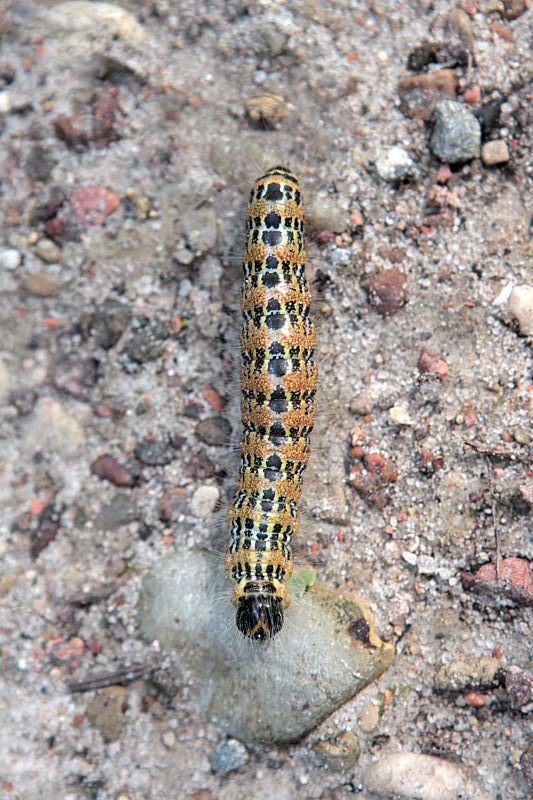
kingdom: Animalia
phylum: Arthropoda
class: Insecta
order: Lepidoptera
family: Notodontidae
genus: Phalera
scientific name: Phalera bucephala
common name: Buff-tip
